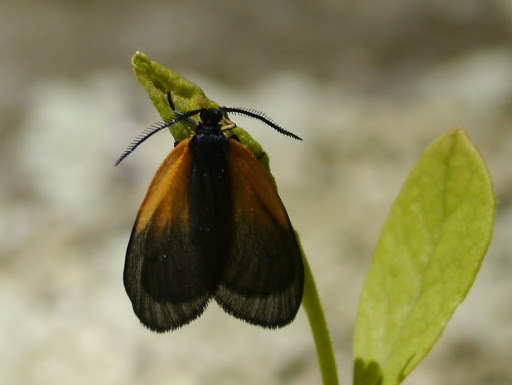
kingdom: Animalia
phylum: Arthropoda
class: Insecta
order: Lepidoptera
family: Zygaenidae
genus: Malthaca
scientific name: Malthaca dimidiata
